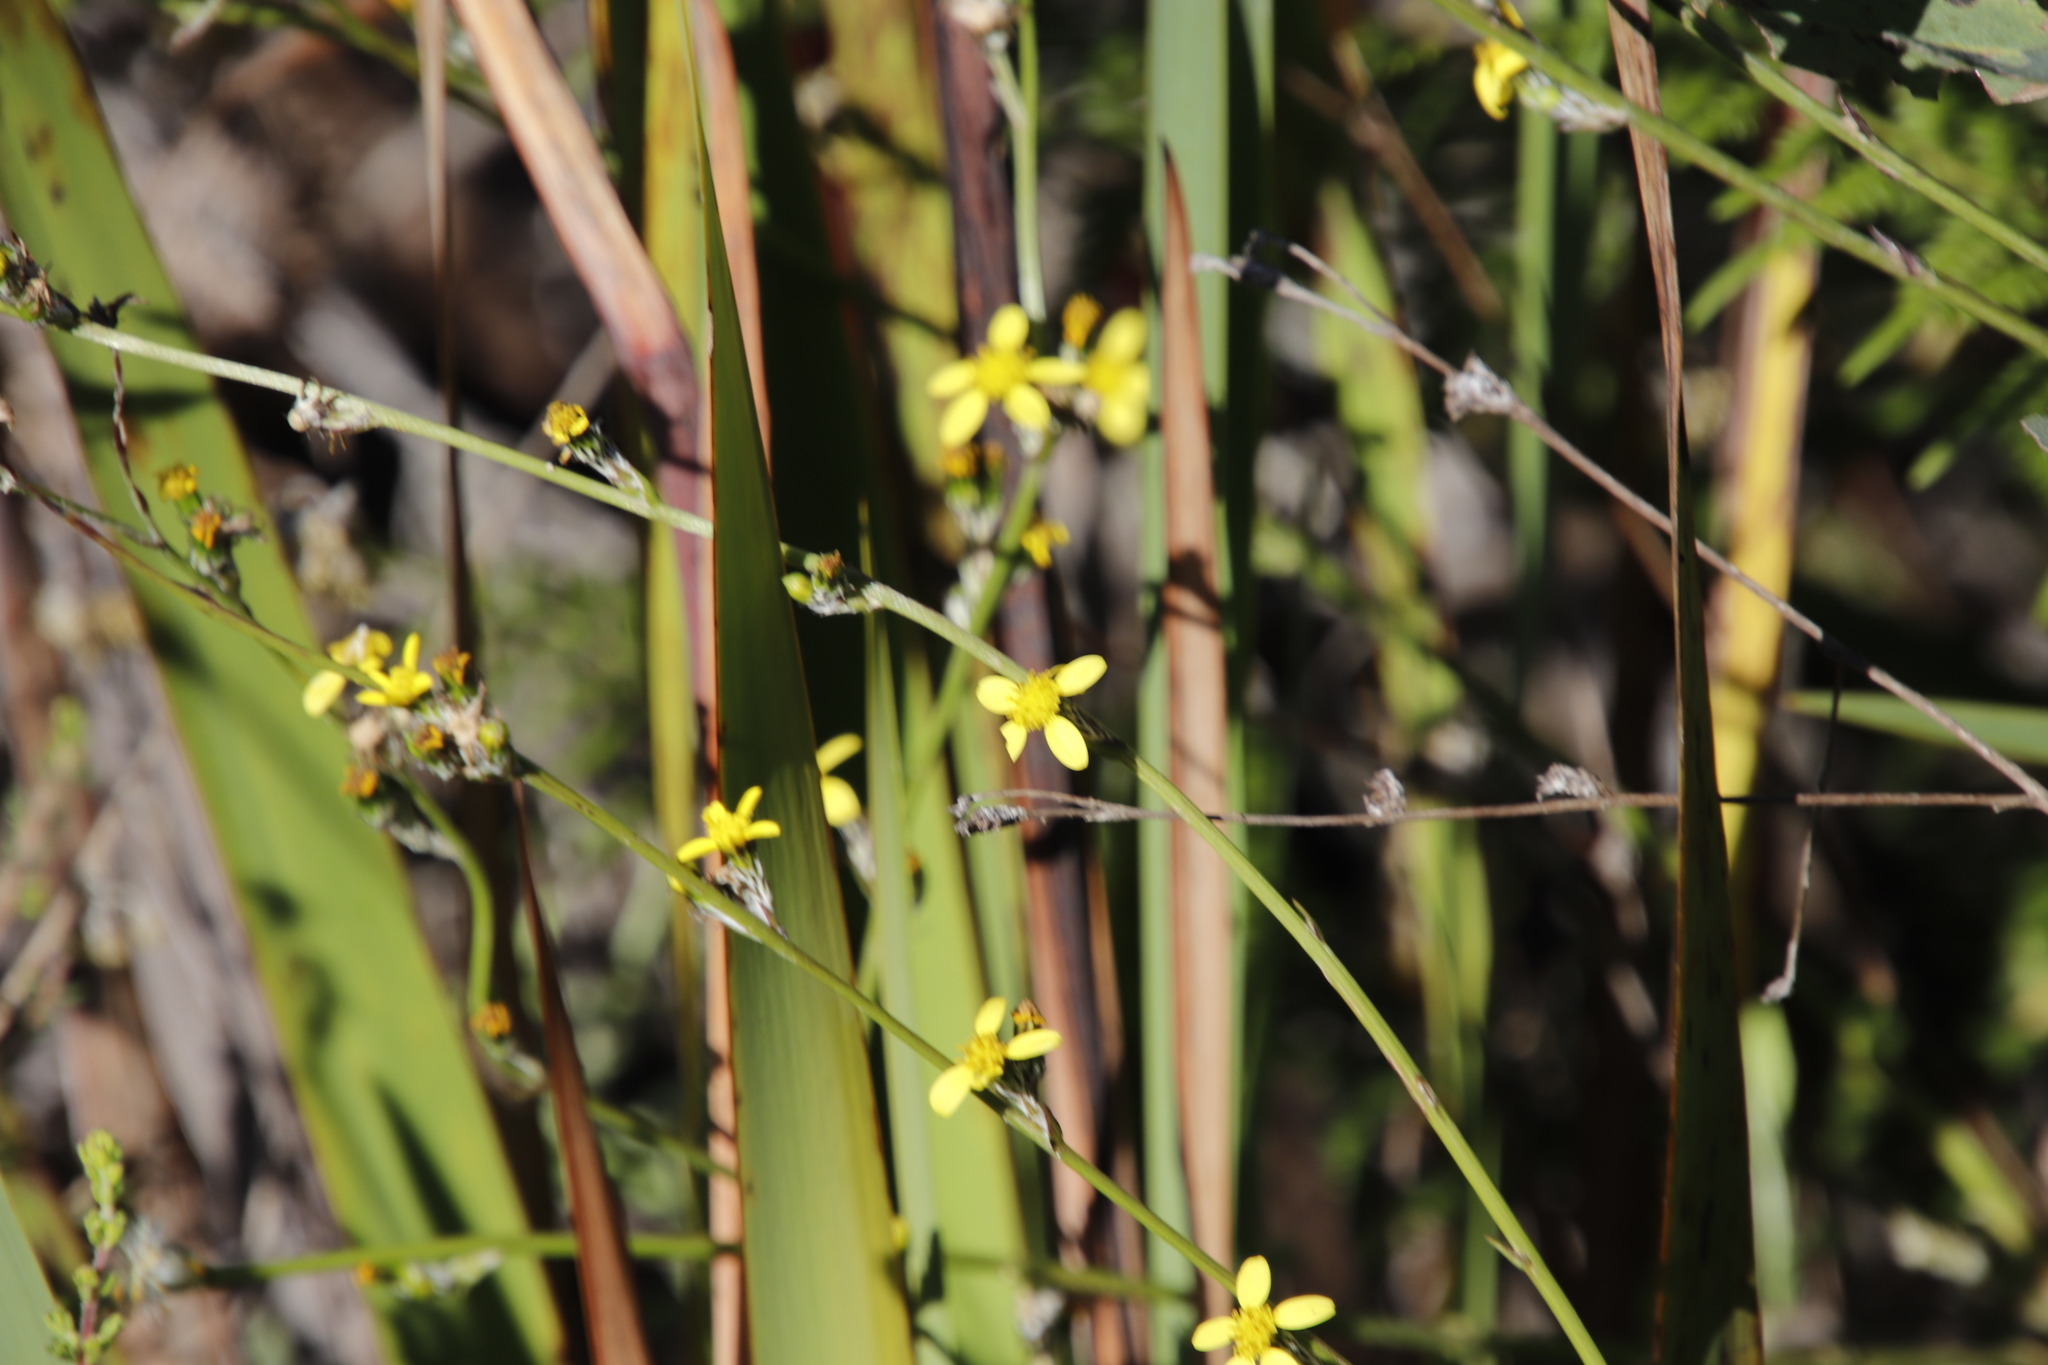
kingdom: Plantae
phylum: Tracheophyta
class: Magnoliopsida
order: Asterales
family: Asteraceae
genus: Senecio
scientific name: Senecio pubigerus
